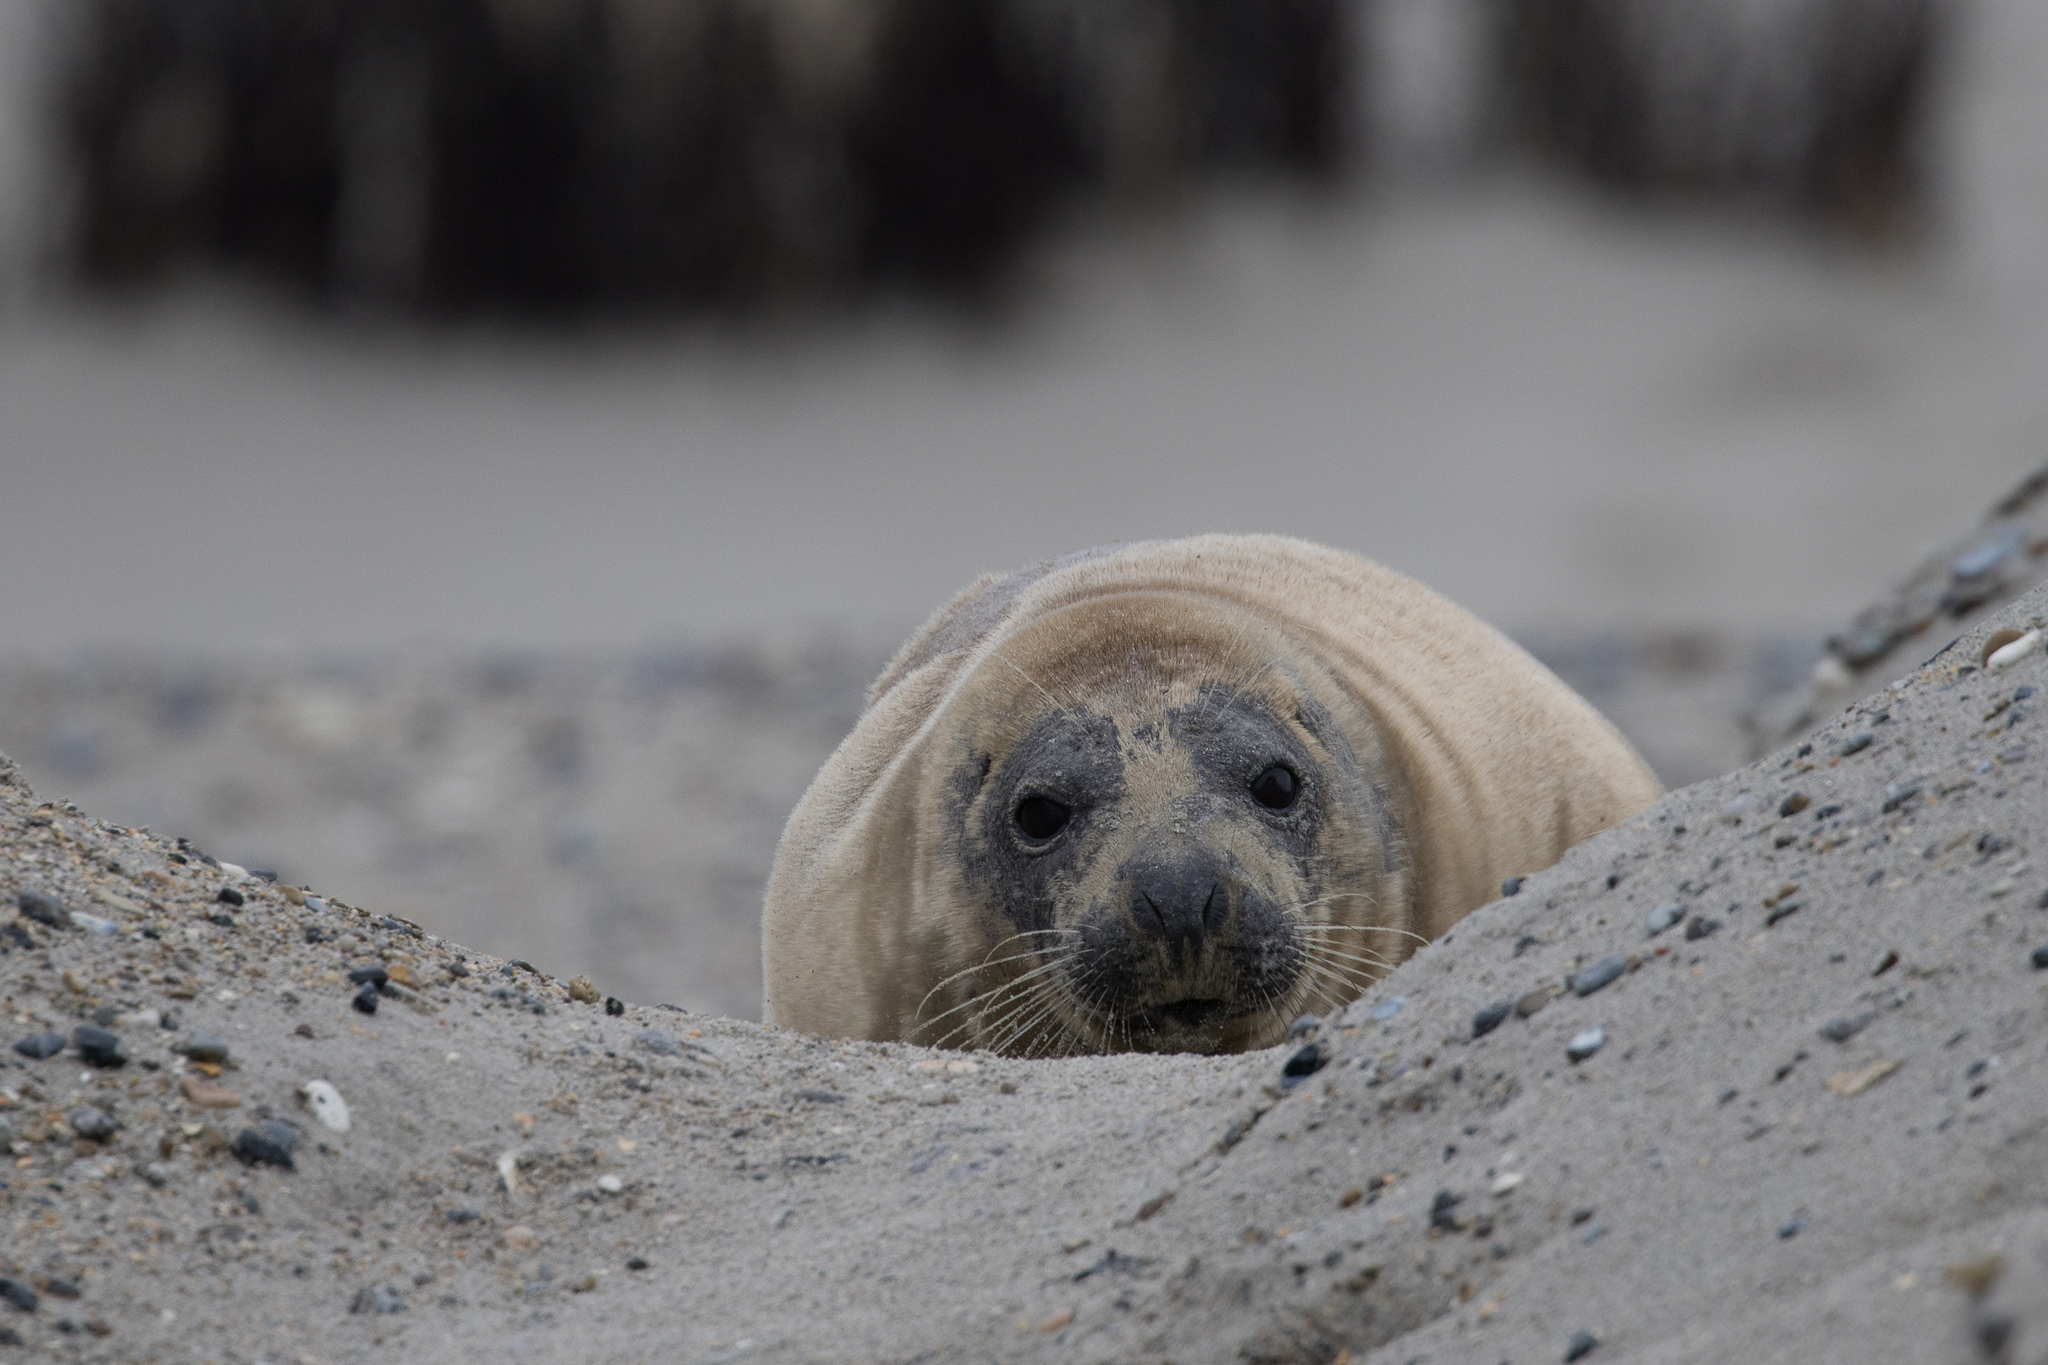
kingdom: Animalia
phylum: Chordata
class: Mammalia
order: Carnivora
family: Phocidae
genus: Halichoerus
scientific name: Halichoerus grypus
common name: Grey seal
